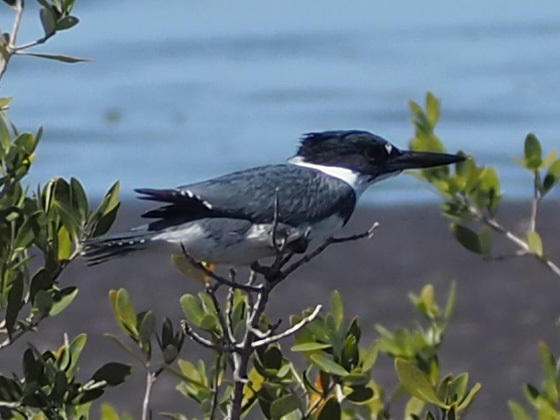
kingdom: Animalia
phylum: Chordata
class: Aves
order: Coraciiformes
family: Alcedinidae
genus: Megaceryle
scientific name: Megaceryle alcyon
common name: Belted kingfisher
